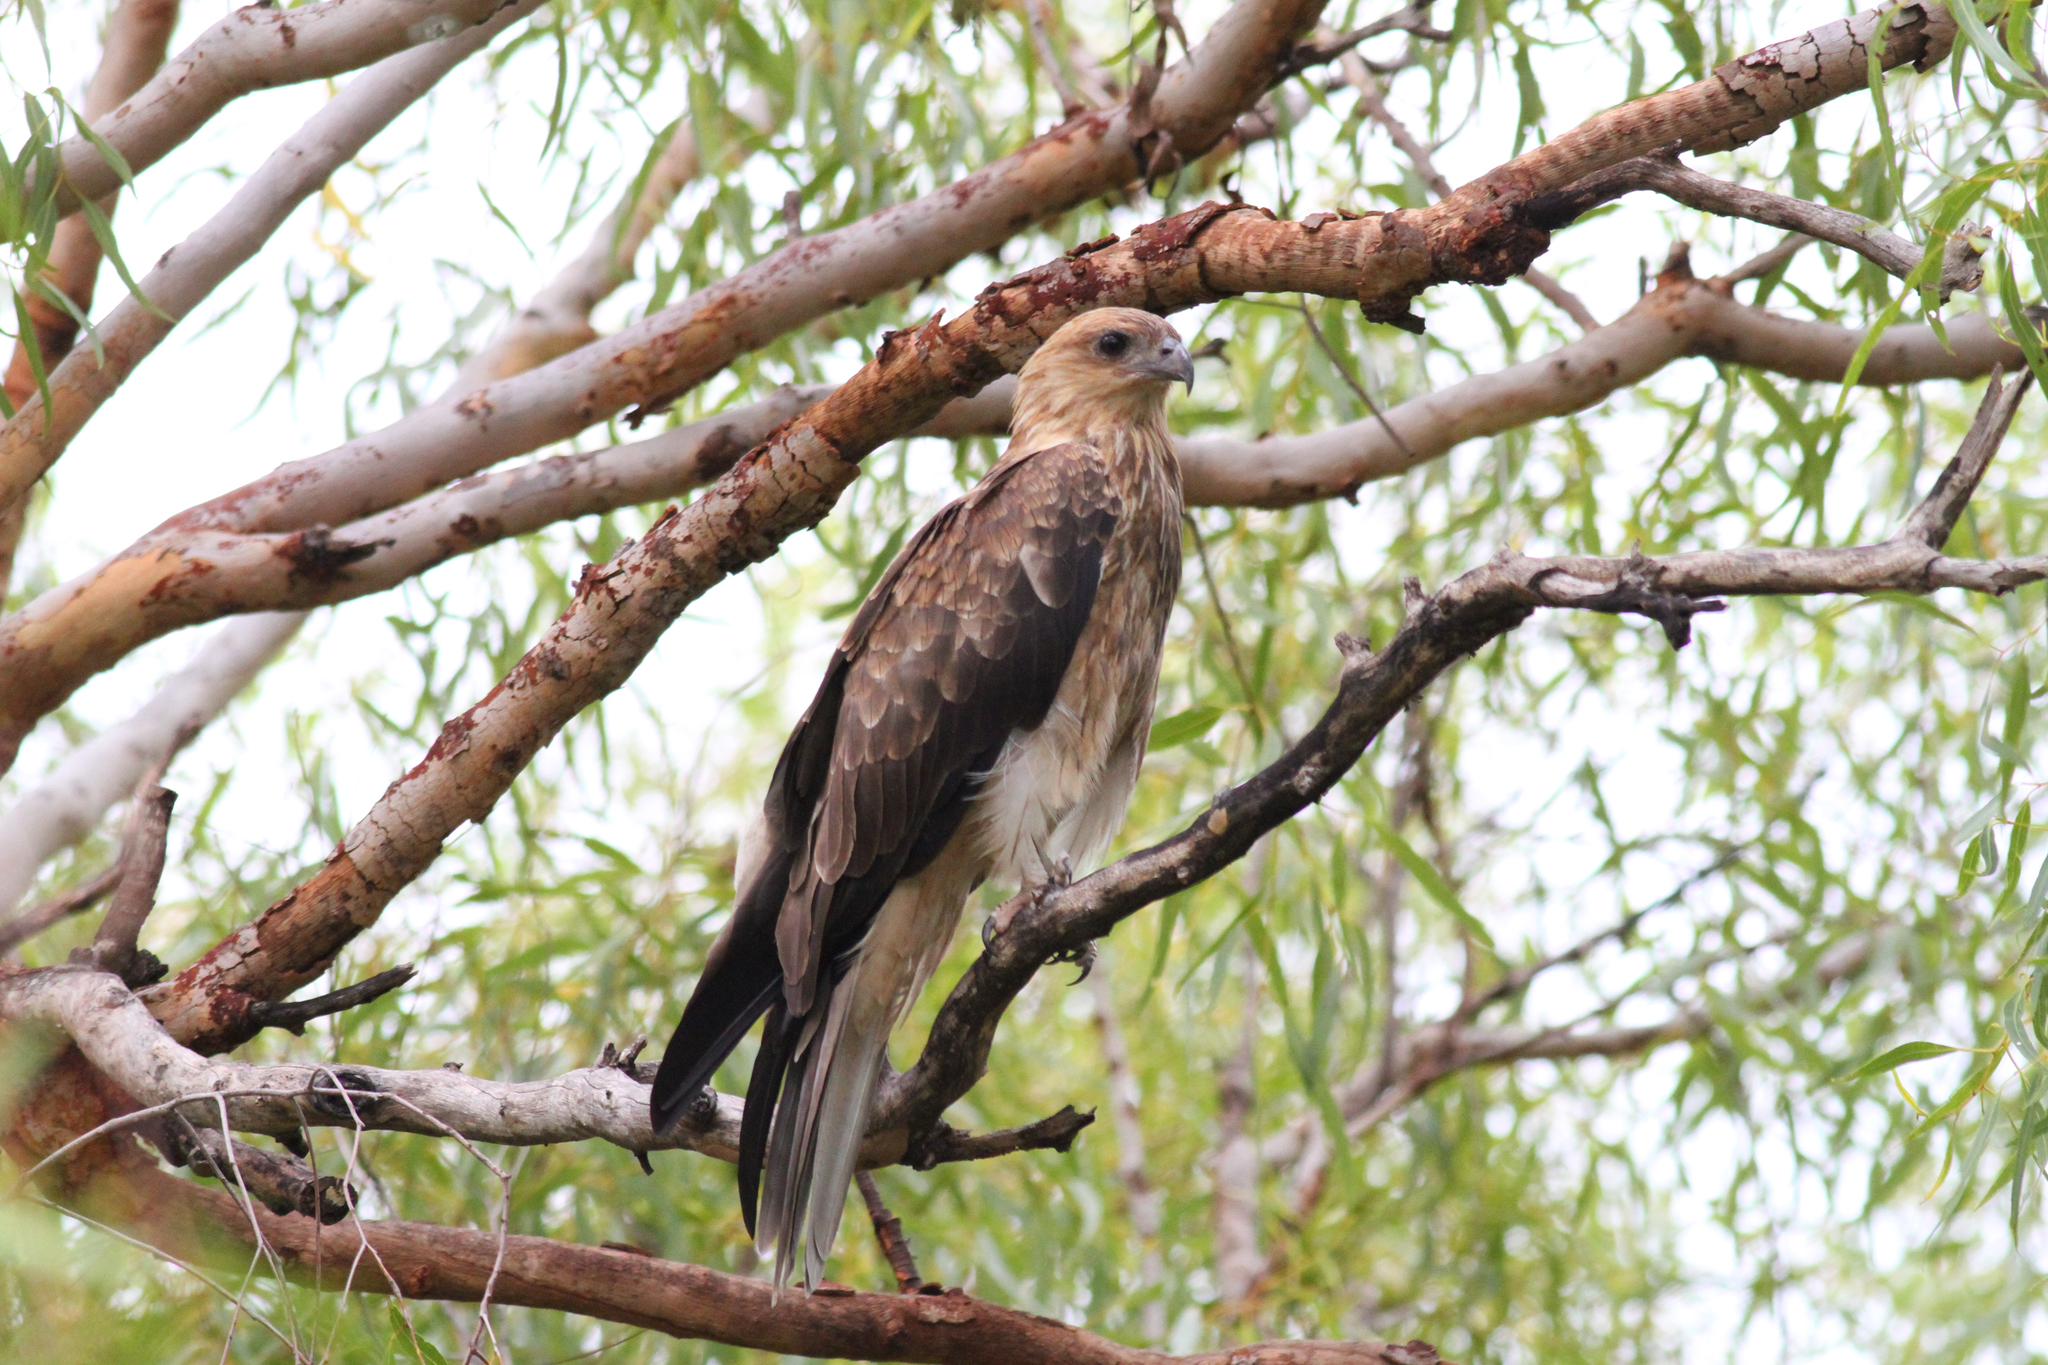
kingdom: Animalia
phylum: Chordata
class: Aves
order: Accipitriformes
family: Accipitridae
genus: Haliastur
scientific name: Haliastur sphenurus
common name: Whistling kite
